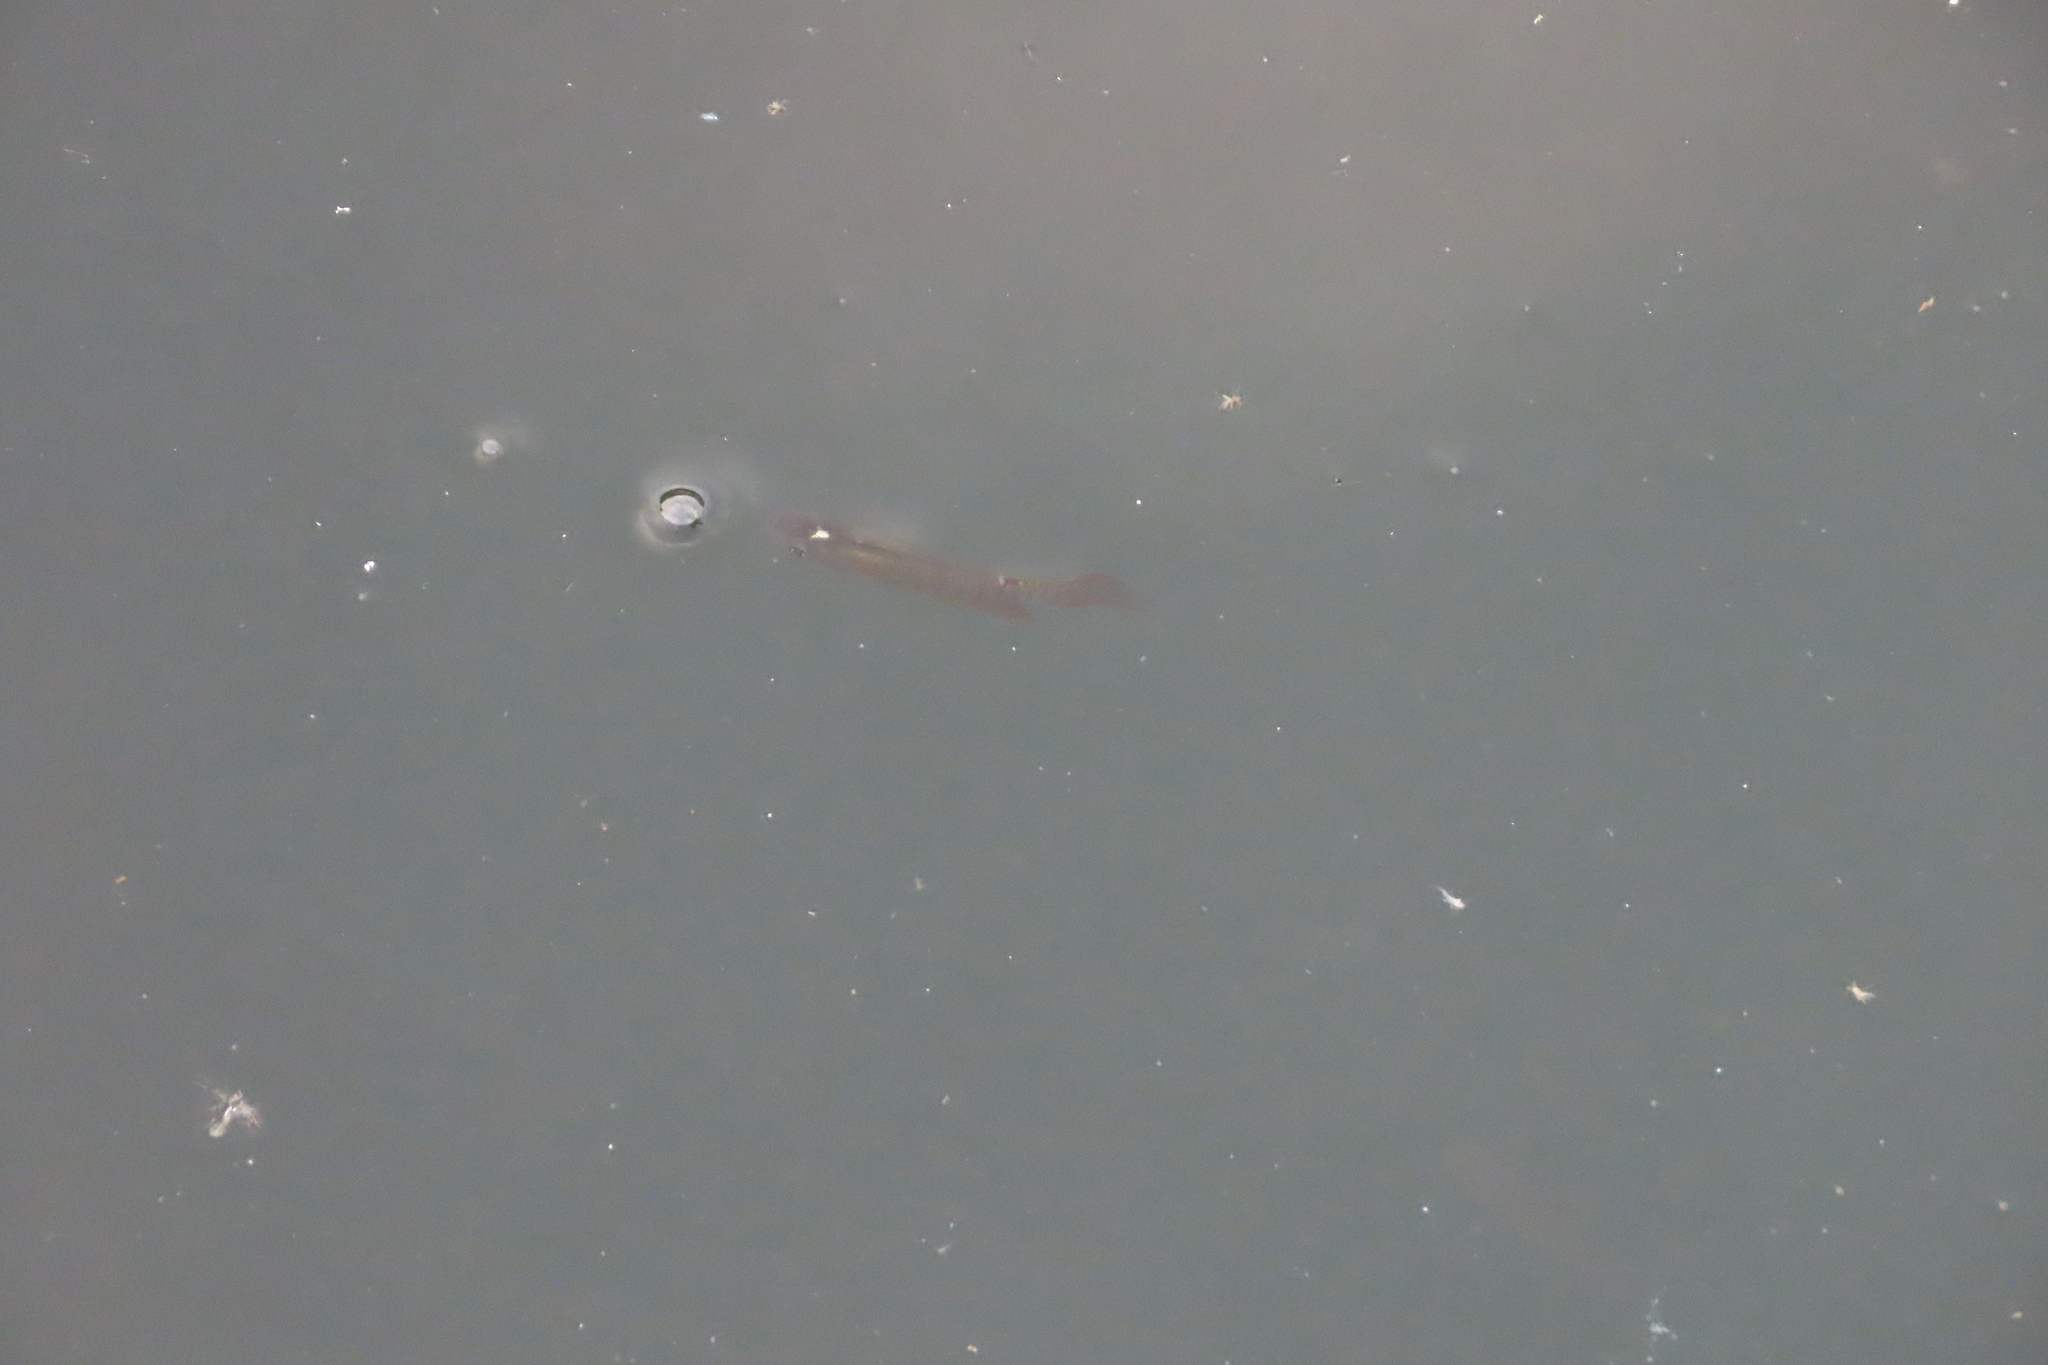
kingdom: Animalia
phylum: Chordata
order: Cyprinodontiformes
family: Aplocheilidae
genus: Aplocheilus
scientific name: Aplocheilus lineatus
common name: Striped panchax
